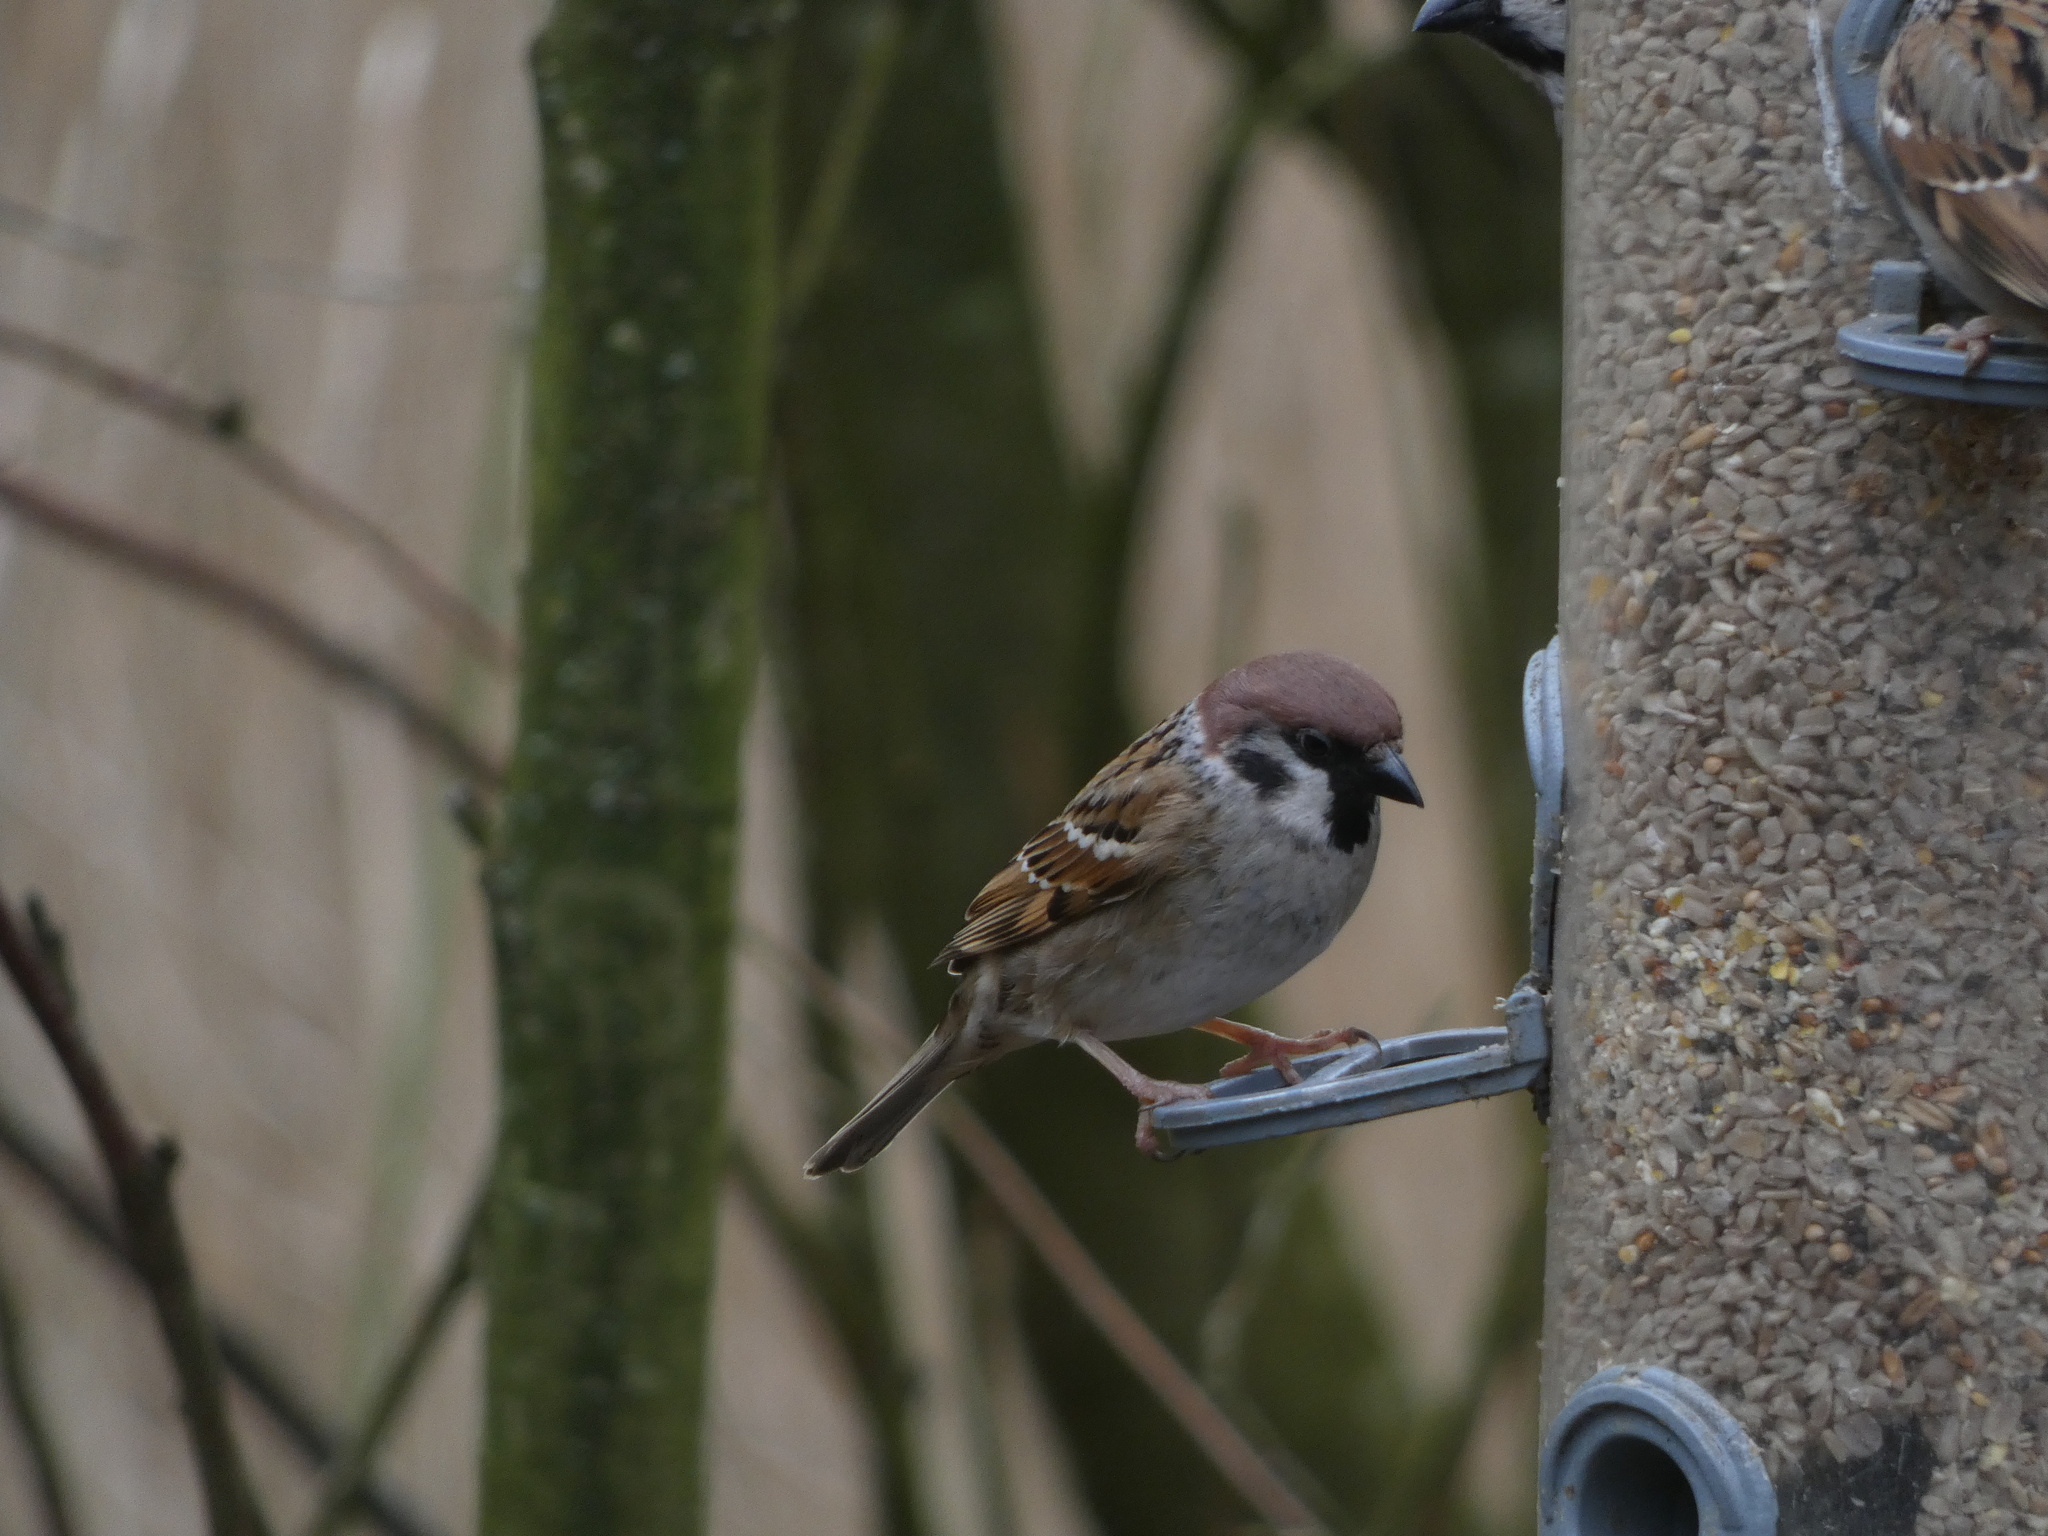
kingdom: Animalia
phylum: Chordata
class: Aves
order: Passeriformes
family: Passeridae
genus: Passer
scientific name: Passer montanus
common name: Eurasian tree sparrow
